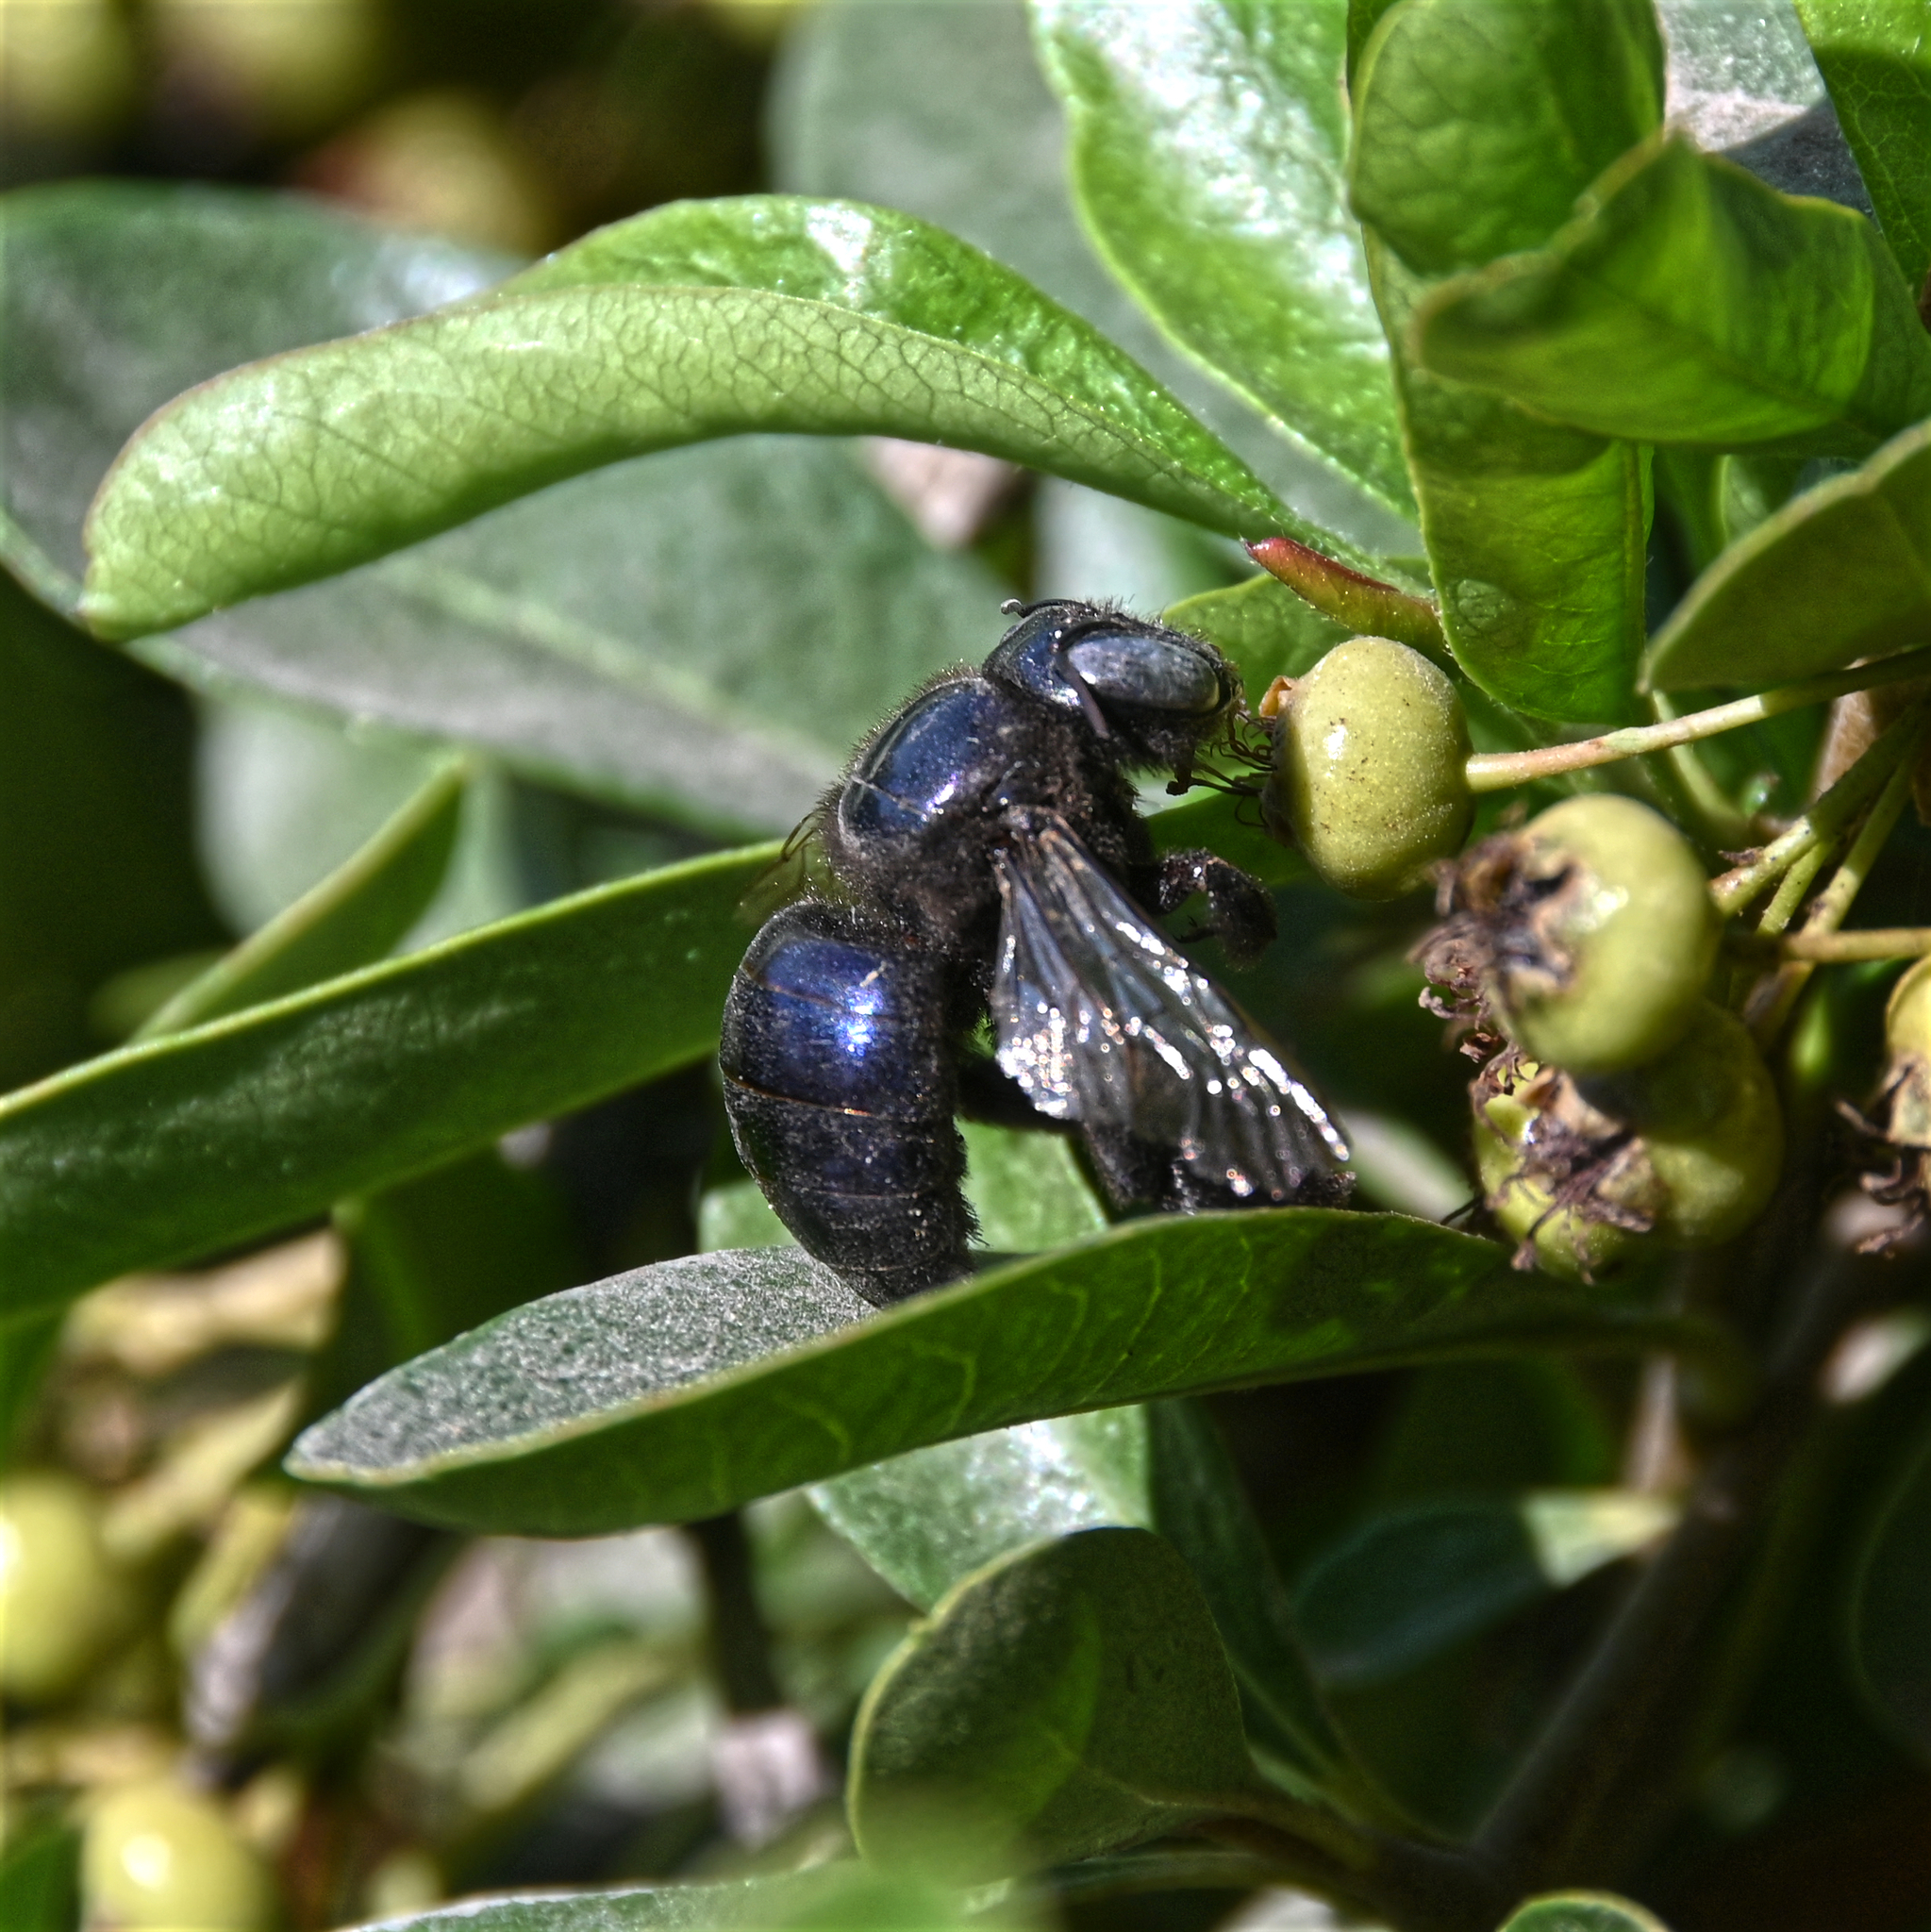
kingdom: Animalia
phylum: Arthropoda
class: Insecta
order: Hymenoptera
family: Apidae
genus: Xylocopa
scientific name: Xylocopa splendidula
